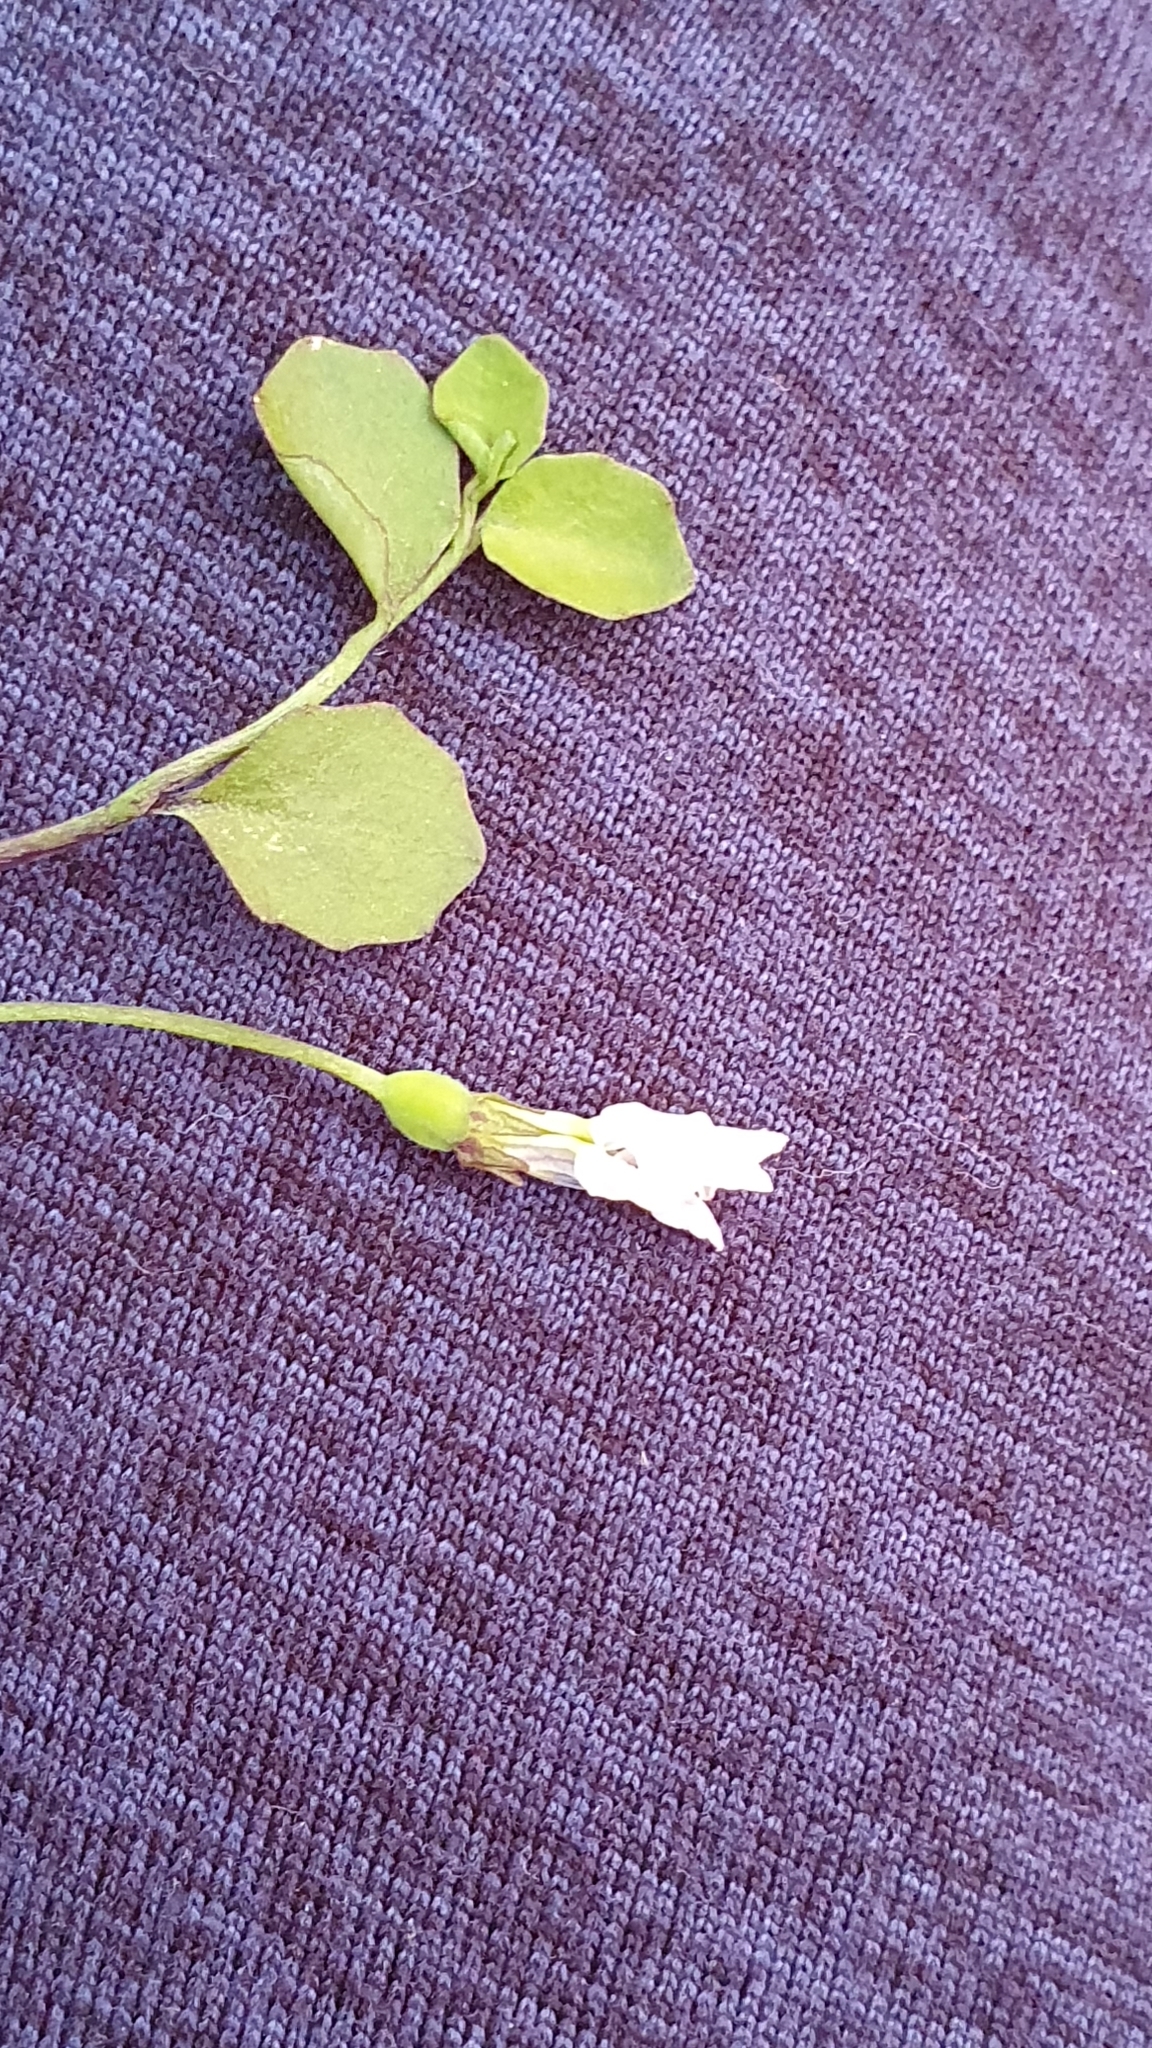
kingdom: Plantae
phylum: Tracheophyta
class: Magnoliopsida
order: Asterales
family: Campanulaceae
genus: Lobelia
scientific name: Lobelia angulata
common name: Lawn lobelia
